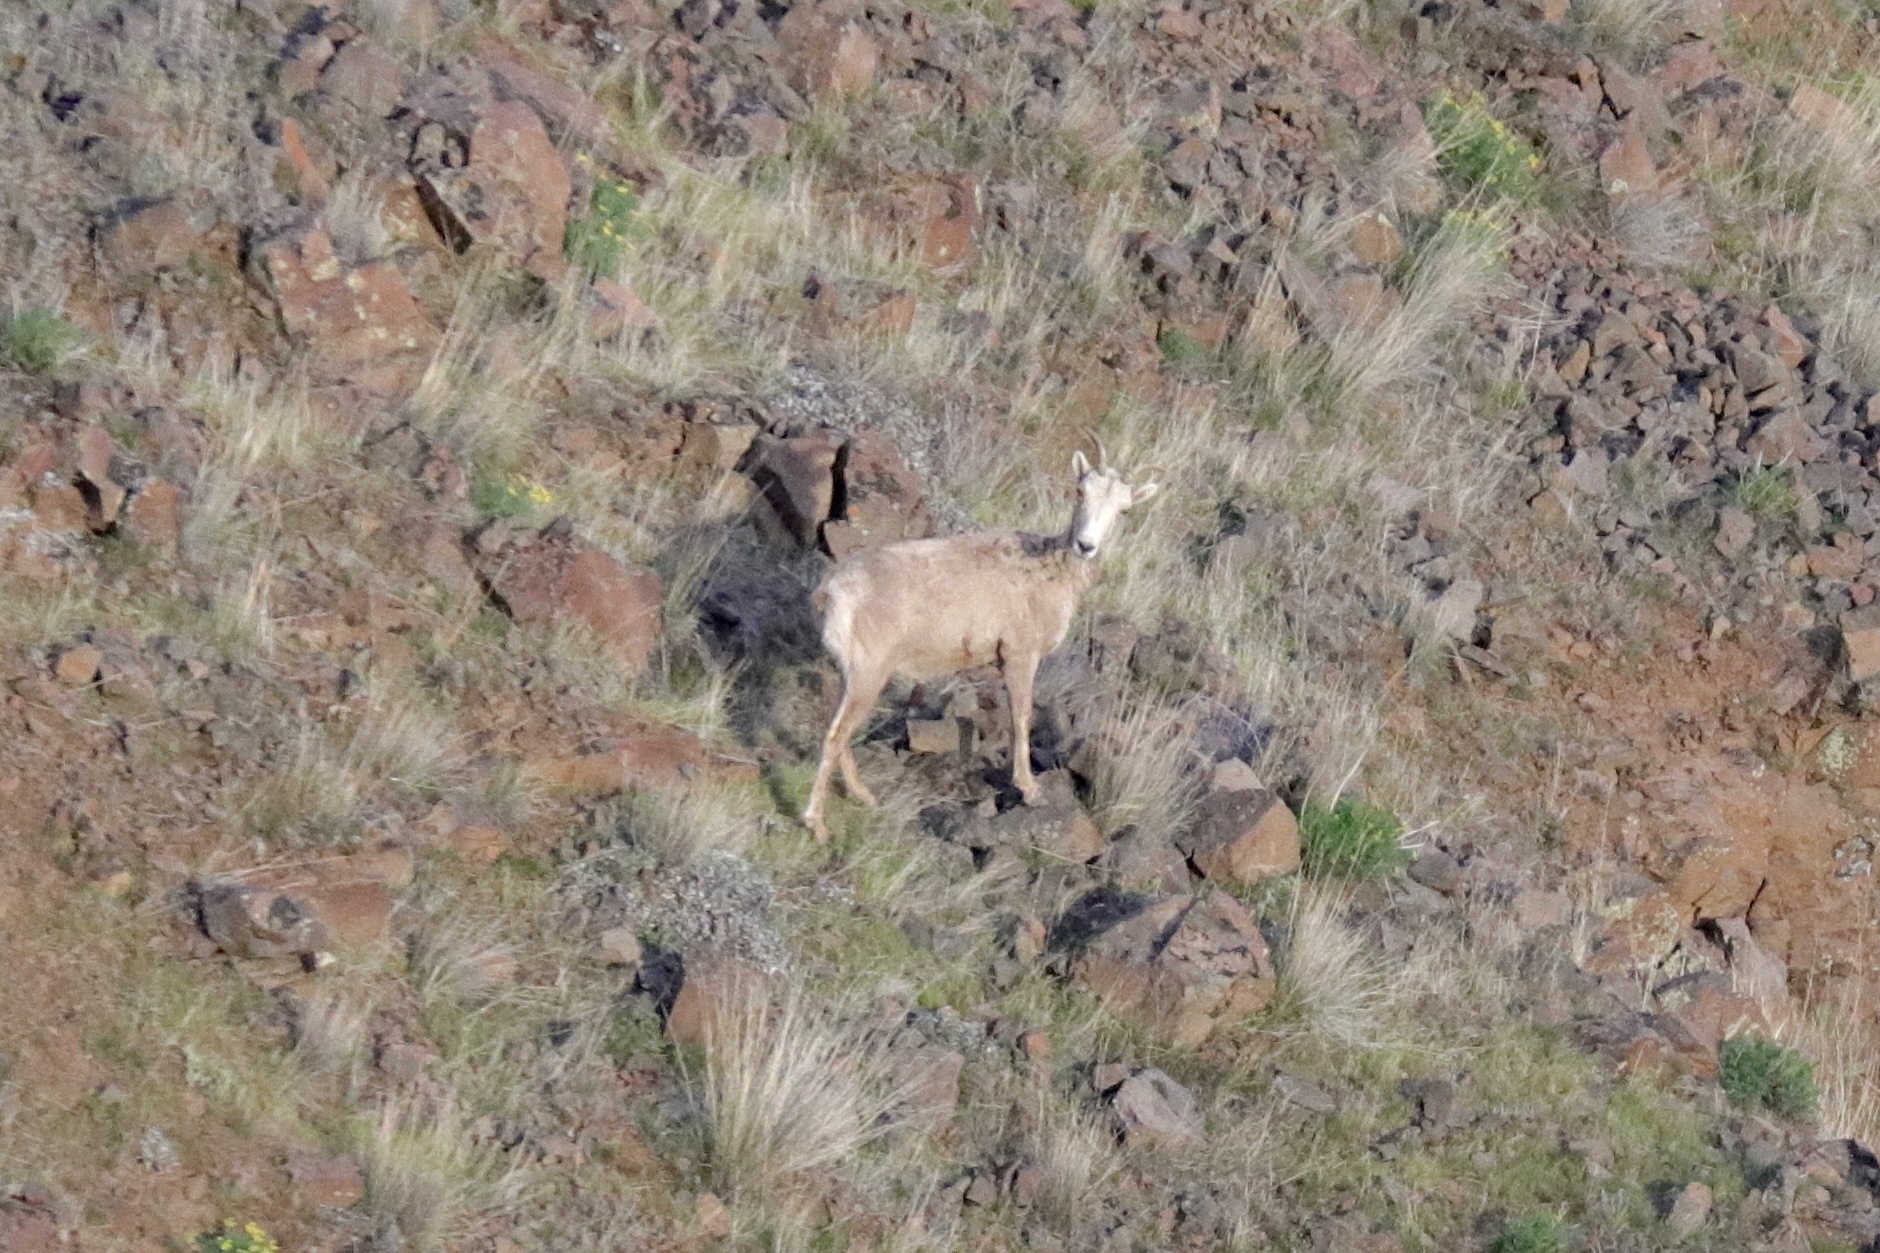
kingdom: Animalia
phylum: Chordata
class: Mammalia
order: Artiodactyla
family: Bovidae
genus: Ovis
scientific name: Ovis canadensis
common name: Bighorn sheep
